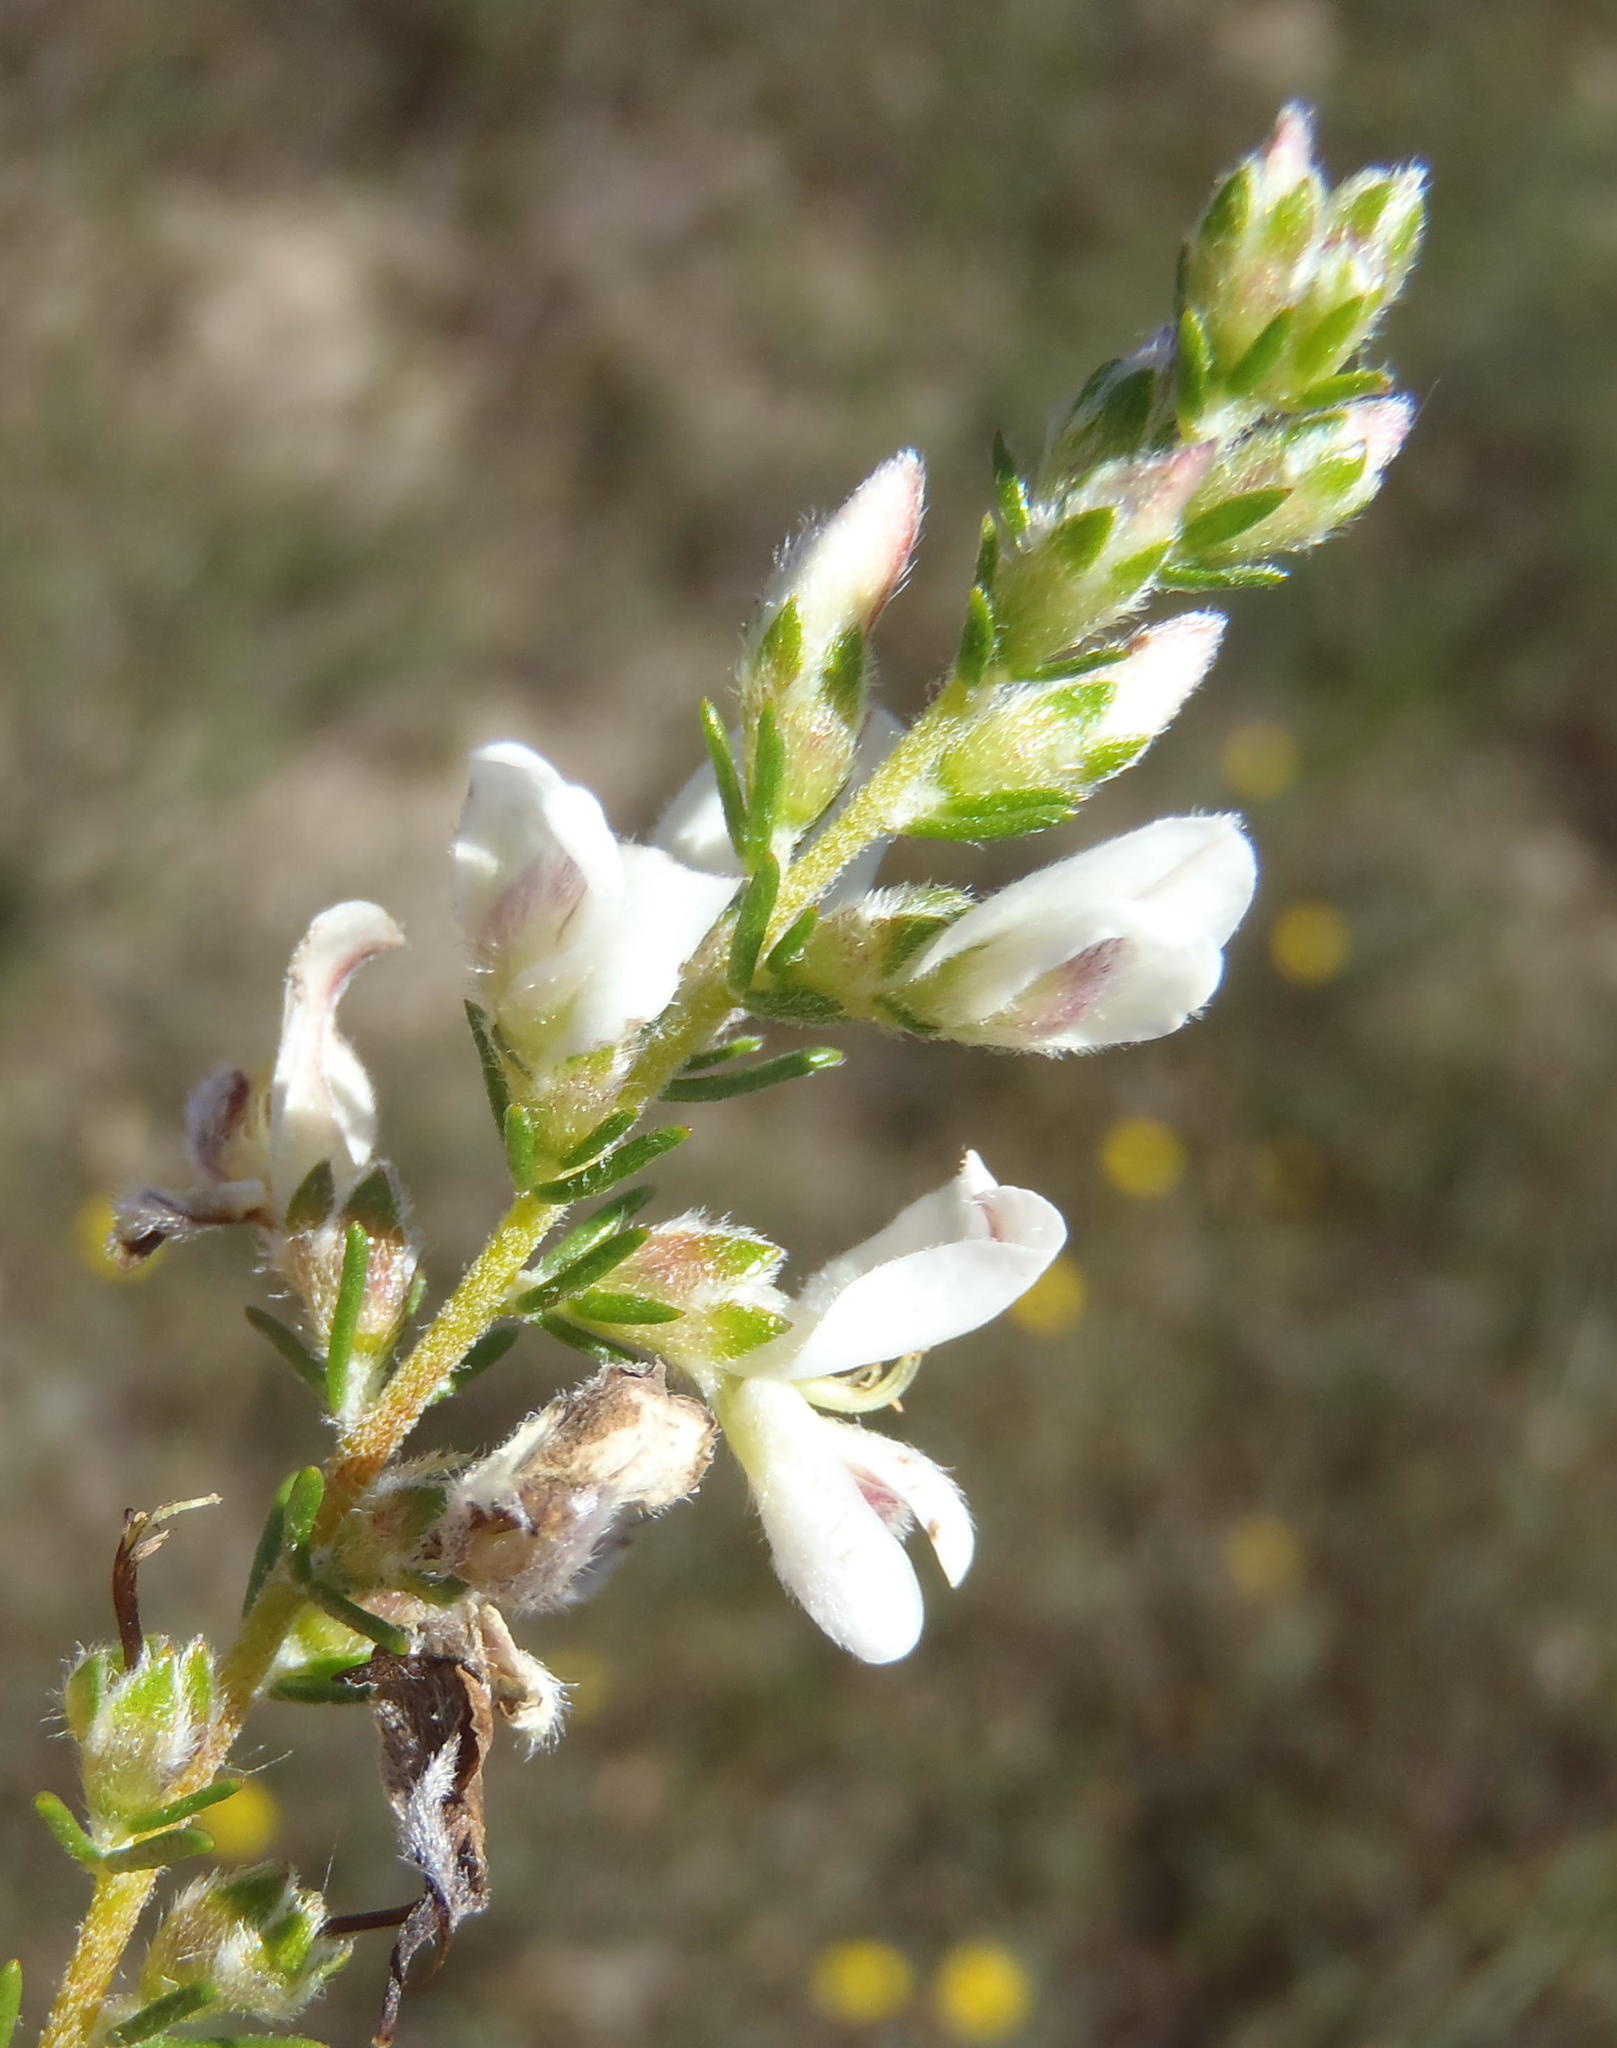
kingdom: Plantae
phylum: Tracheophyta
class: Magnoliopsida
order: Fabales
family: Fabaceae
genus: Aspalathus
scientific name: Aspalathus nigra
